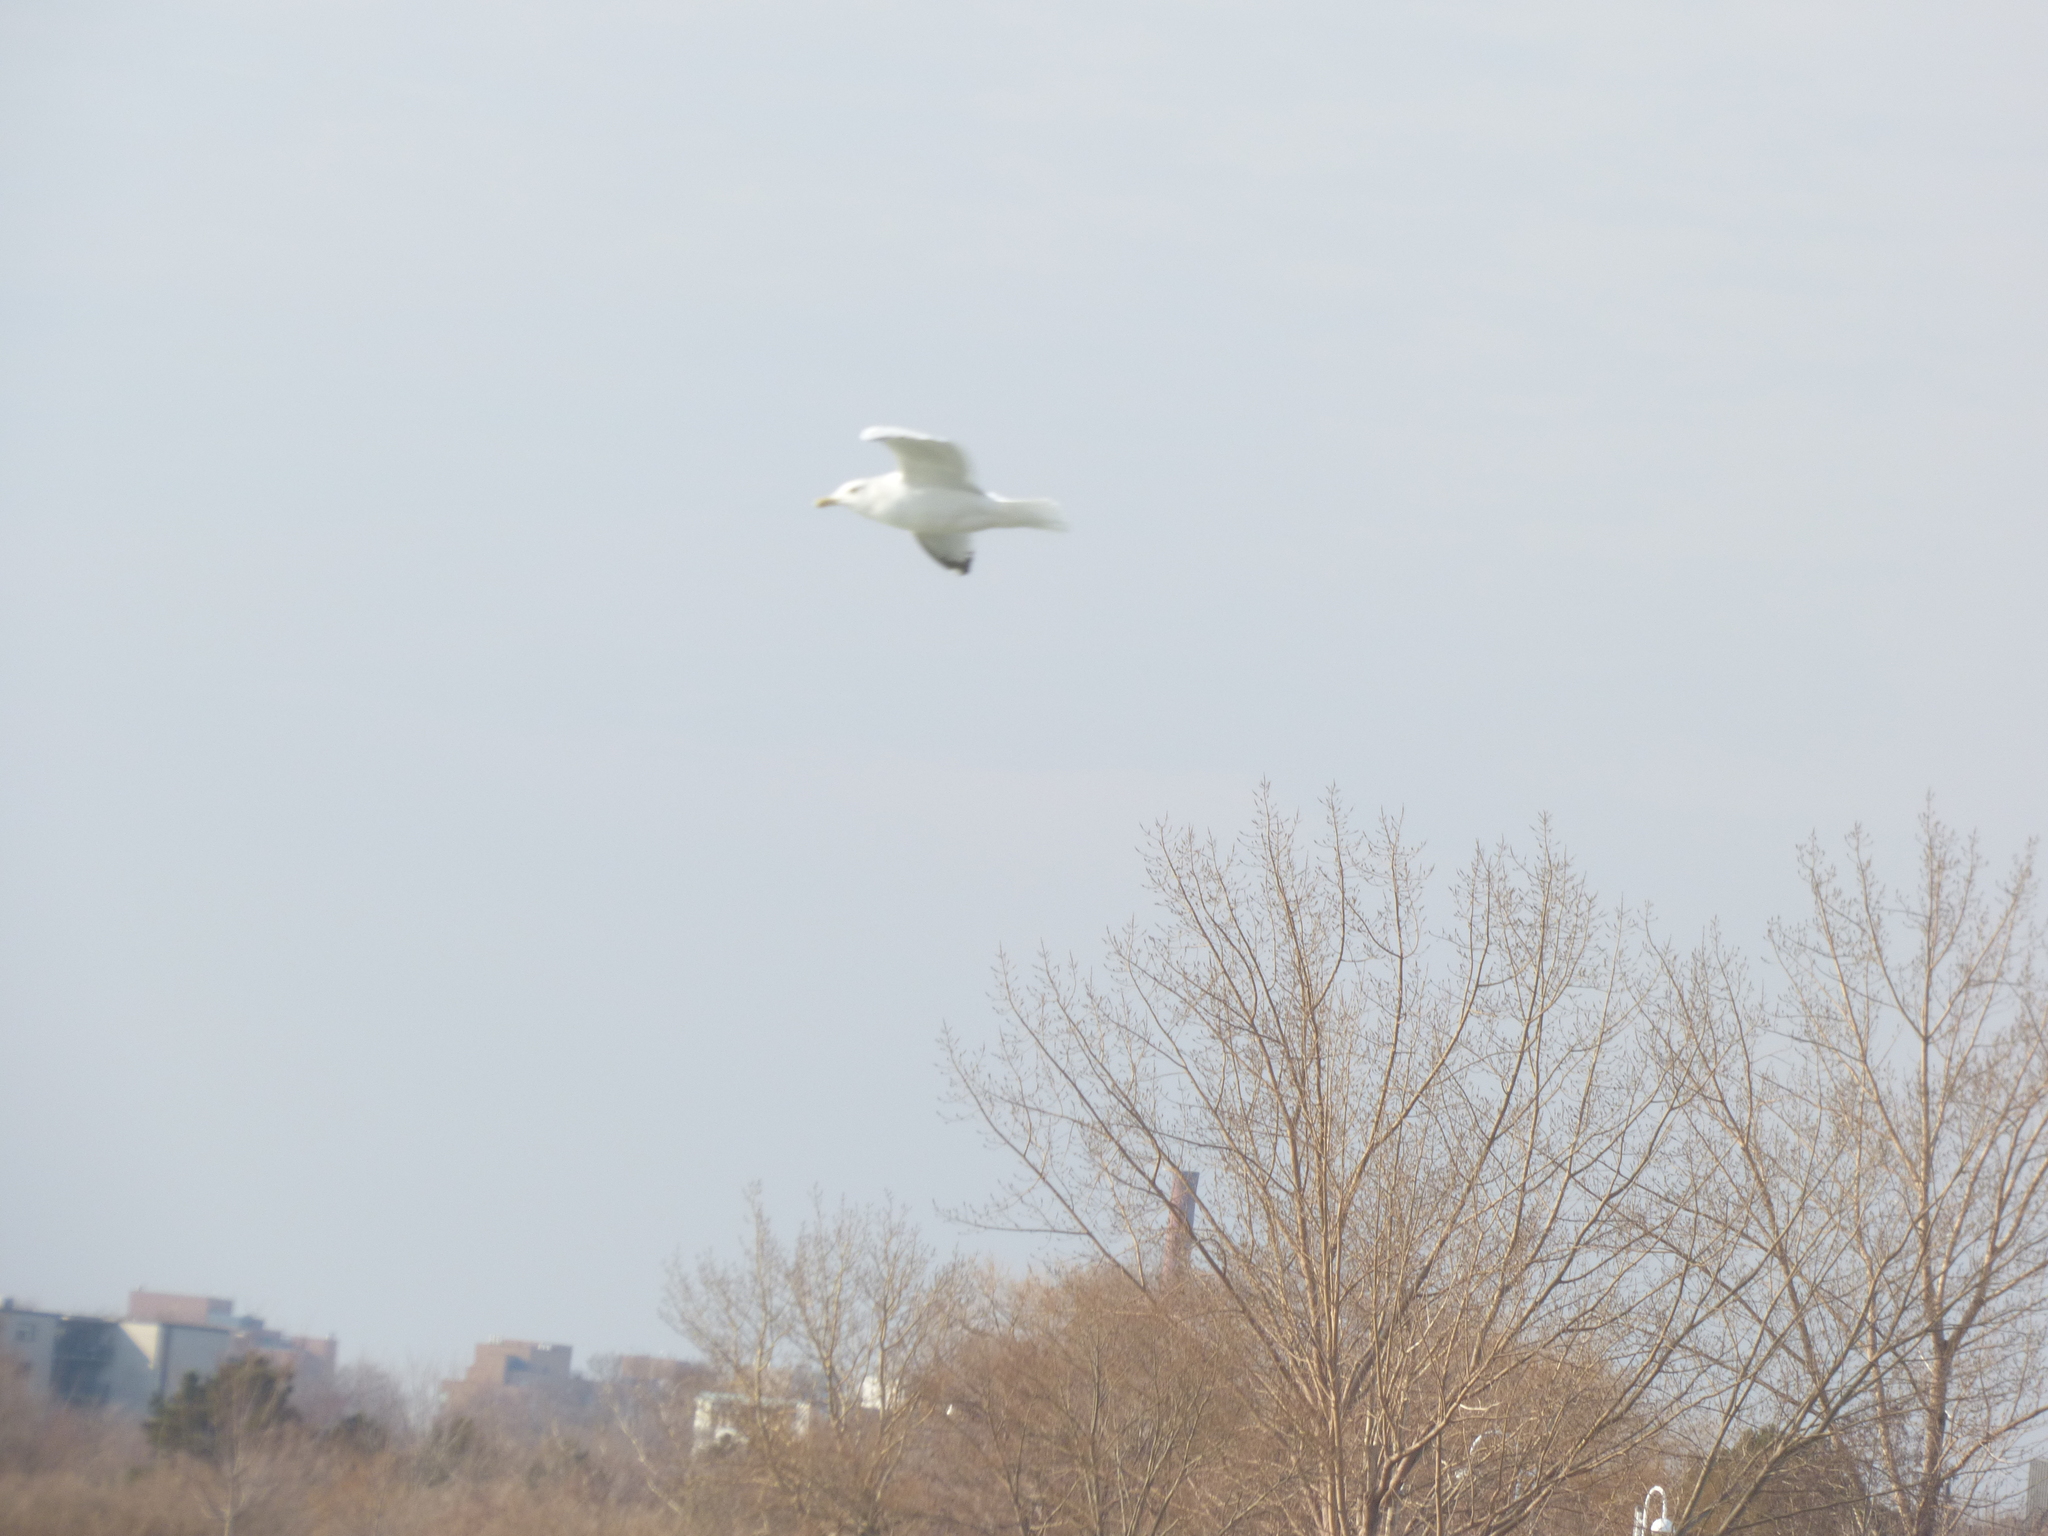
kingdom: Animalia
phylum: Chordata
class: Aves
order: Charadriiformes
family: Laridae
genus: Larus
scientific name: Larus argentatus
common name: Herring gull
